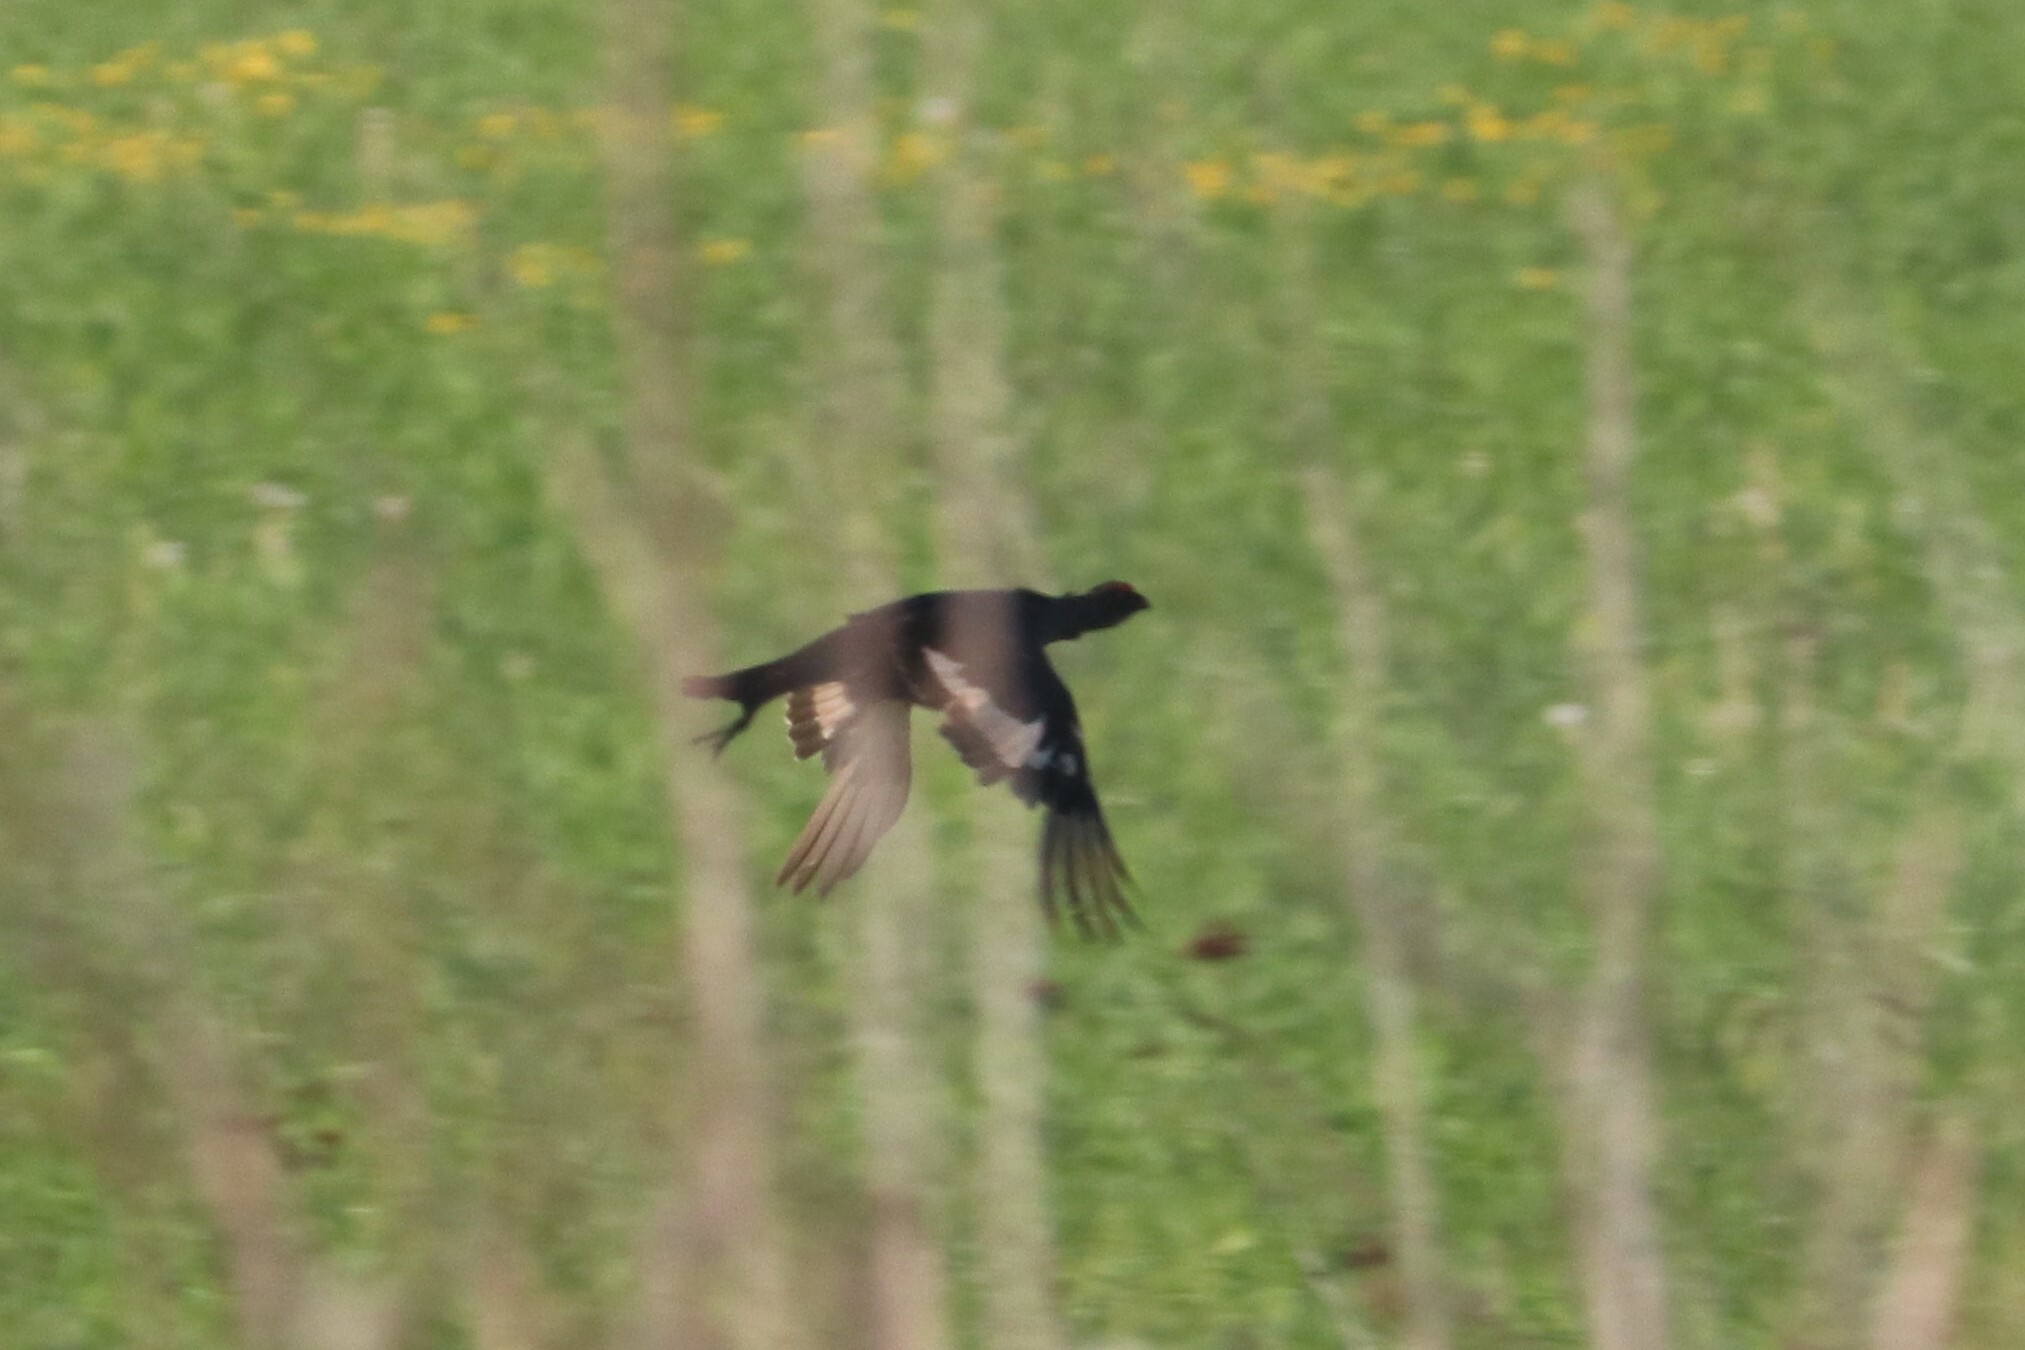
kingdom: Animalia
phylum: Chordata
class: Aves
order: Galliformes
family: Phasianidae
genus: Lyrurus
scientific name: Lyrurus tetrix
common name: Black grouse
